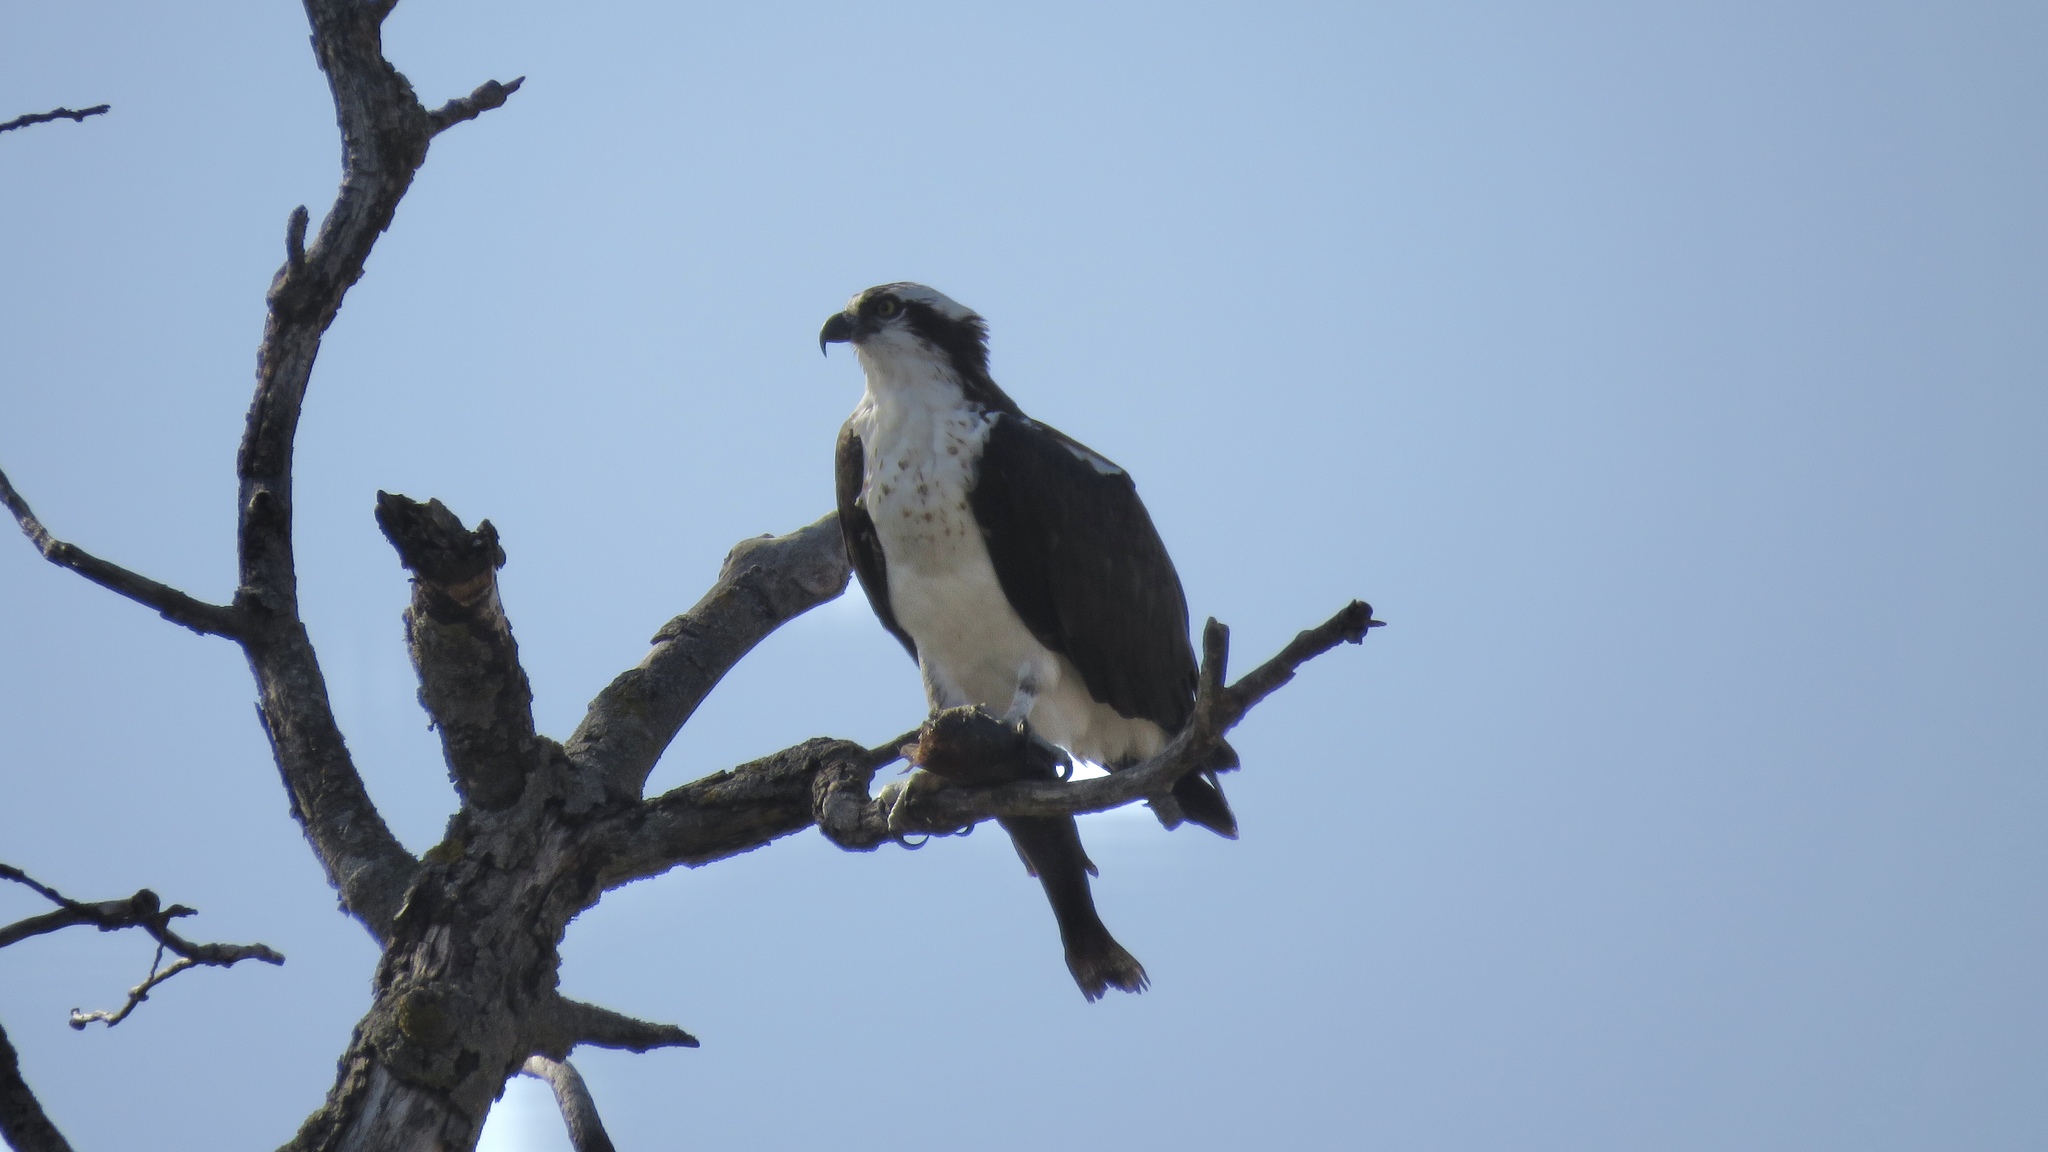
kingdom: Animalia
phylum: Chordata
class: Aves
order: Accipitriformes
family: Pandionidae
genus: Pandion
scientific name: Pandion haliaetus
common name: Osprey
